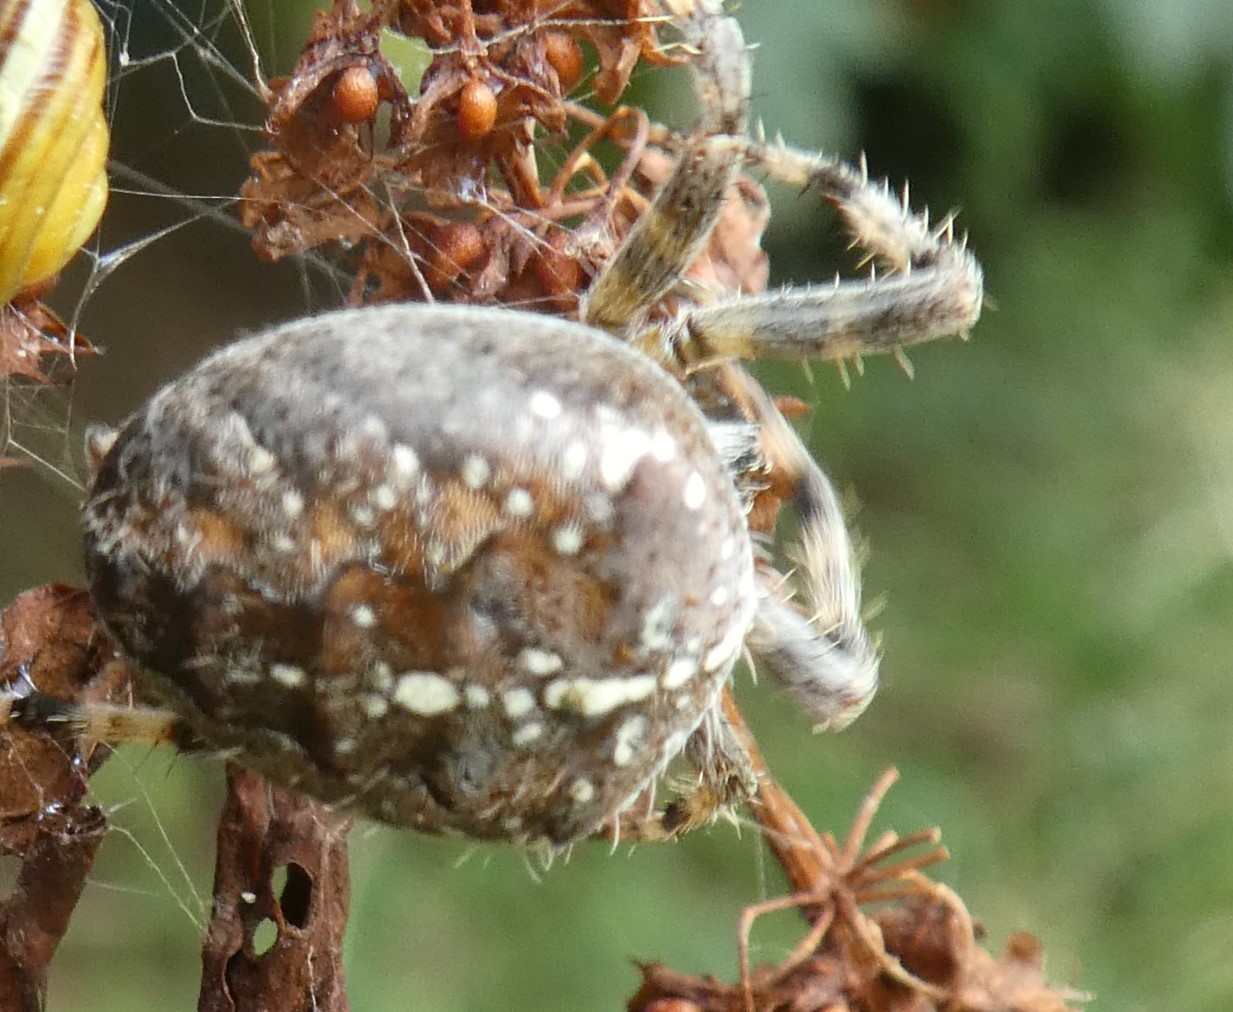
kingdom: Animalia
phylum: Arthropoda
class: Arachnida
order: Araneae
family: Araneidae
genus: Araneus
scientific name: Araneus diadematus
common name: Cross orbweaver
